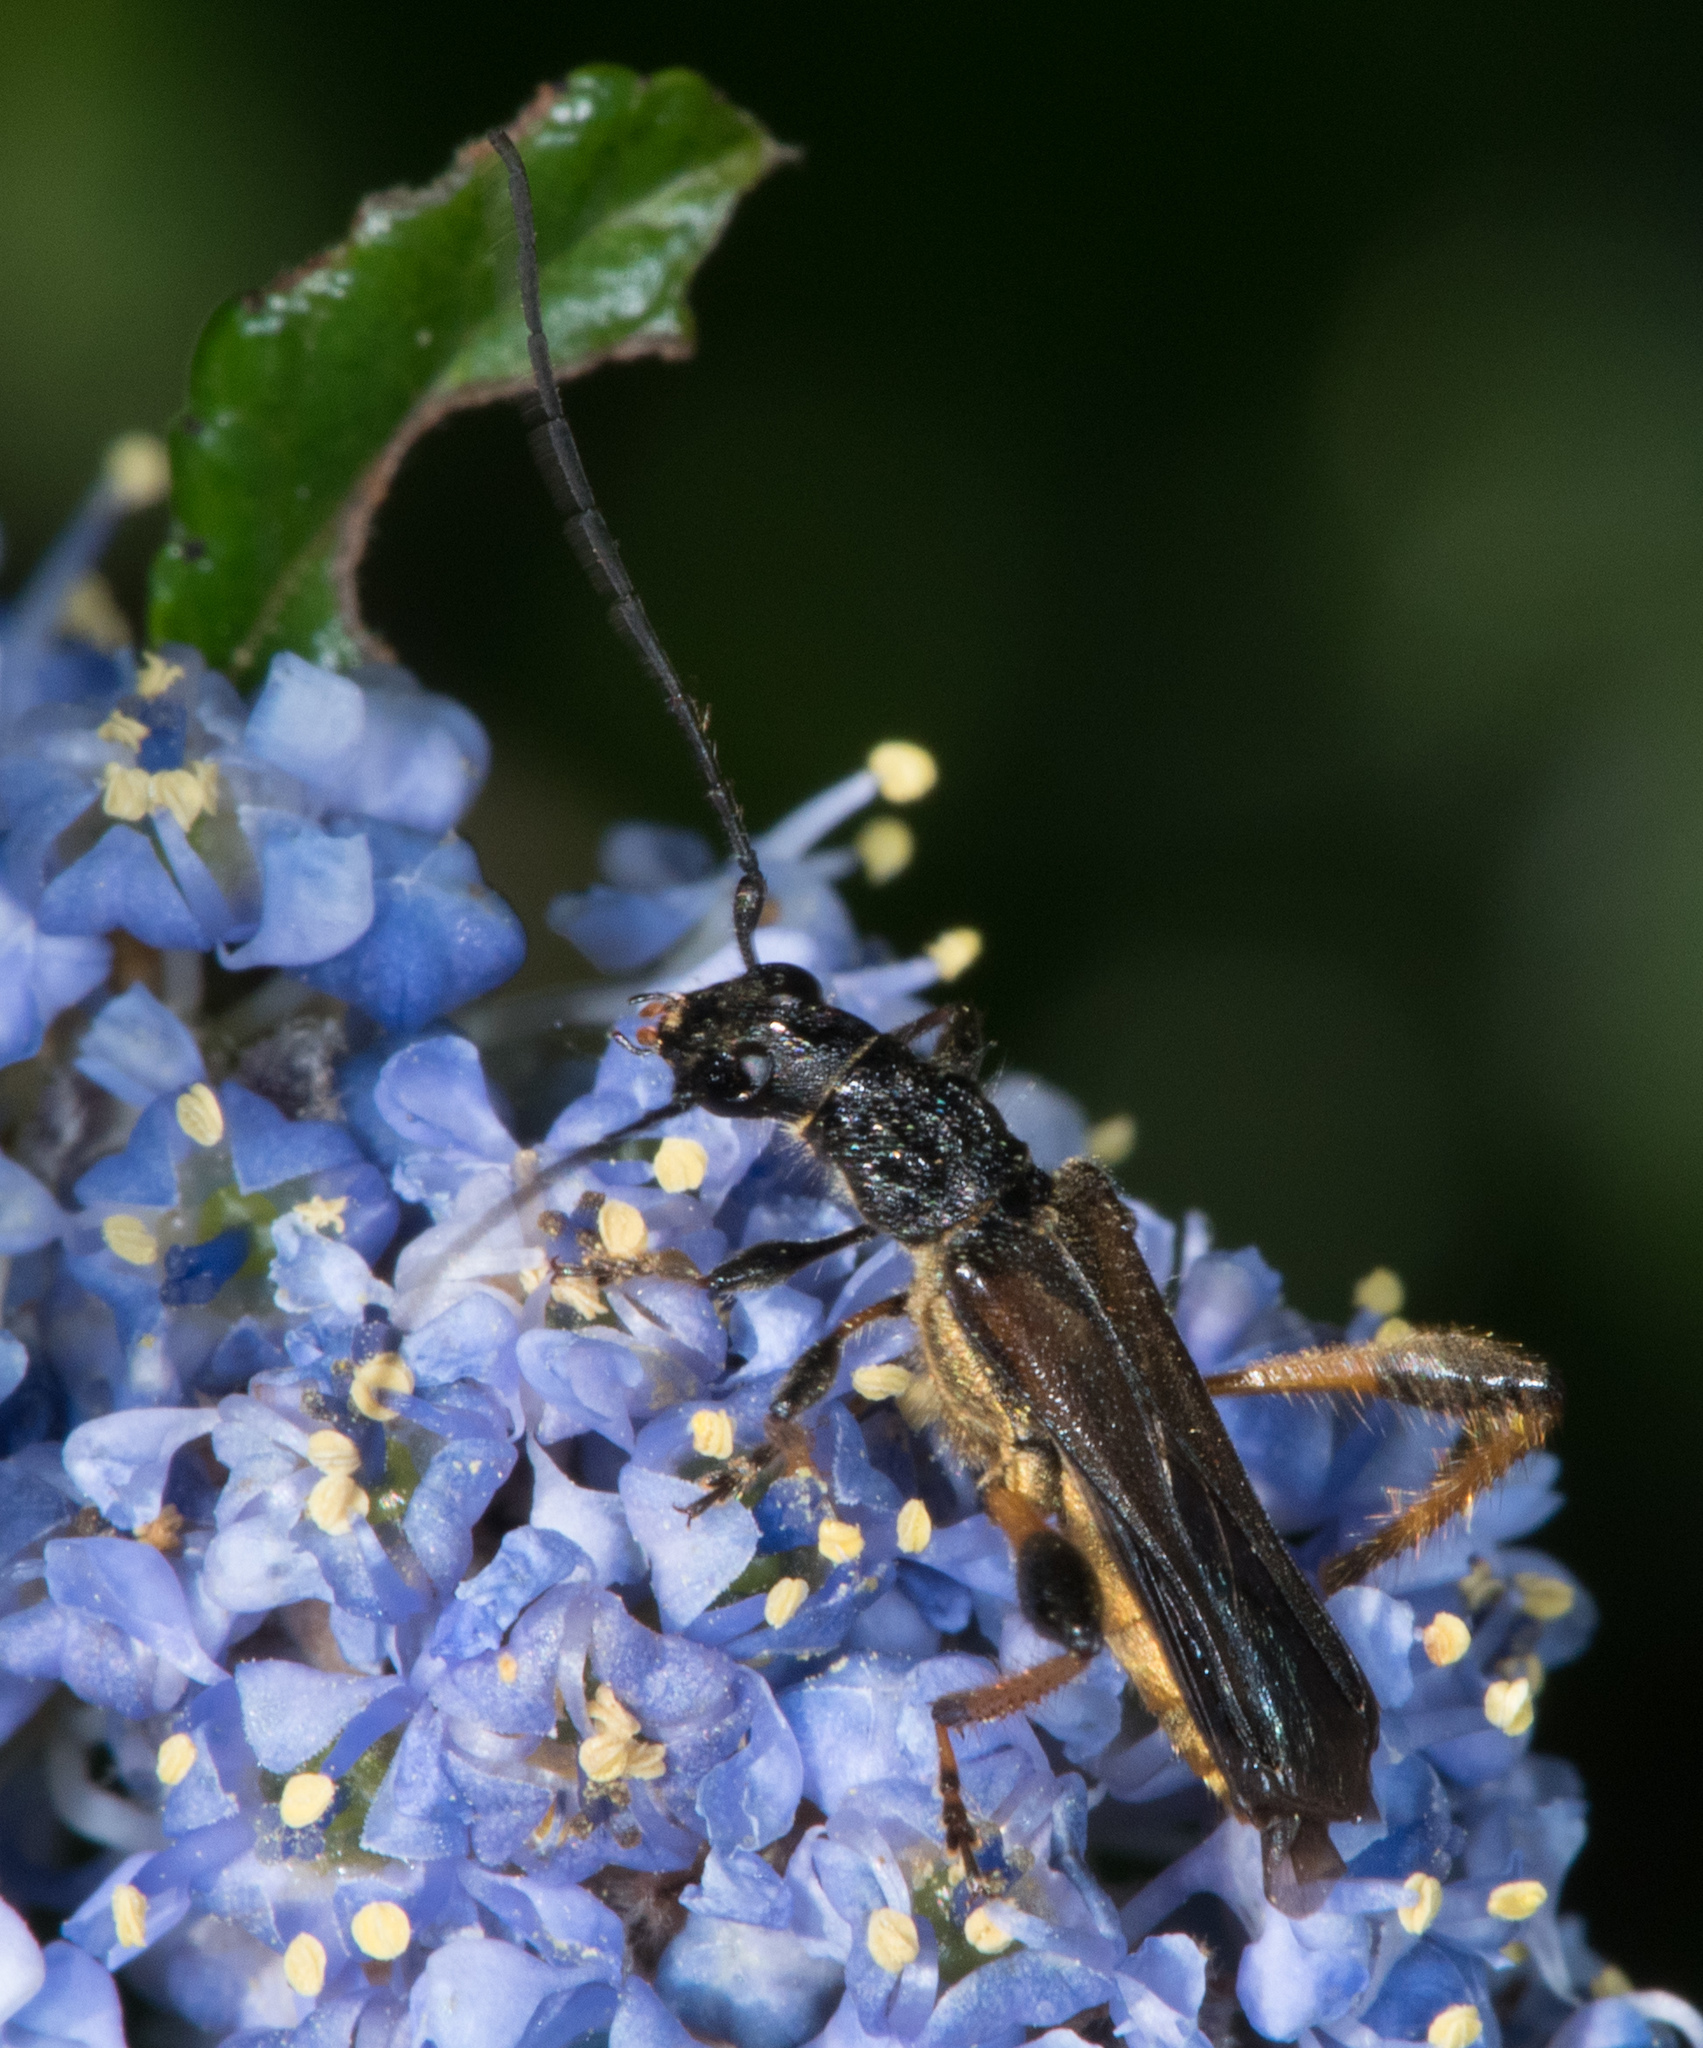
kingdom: Animalia
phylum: Arthropoda
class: Insecta
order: Coleoptera
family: Cerambycidae
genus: Callimoxys
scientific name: Callimoxys fuscipennis
